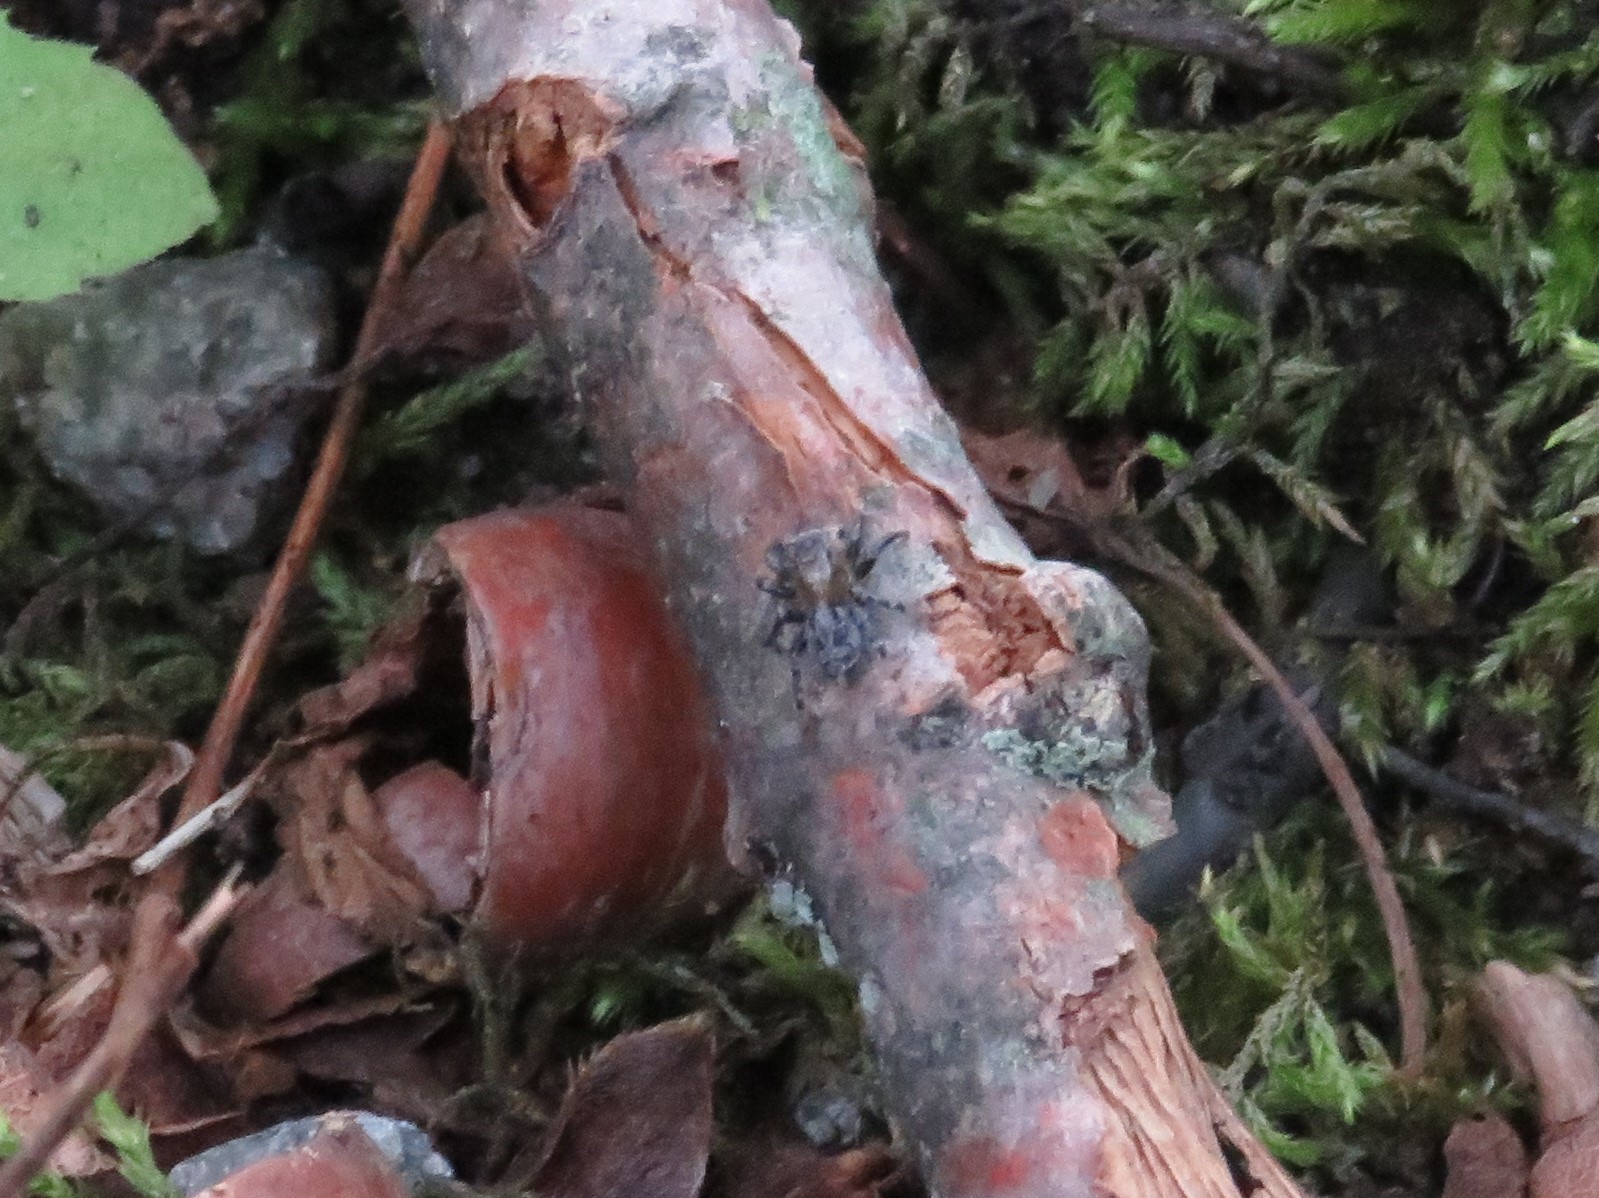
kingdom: Animalia
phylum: Arthropoda
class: Arachnida
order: Araneae
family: Salticidae
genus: Naphrys
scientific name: Naphrys pulex
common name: Flea jumping spider
